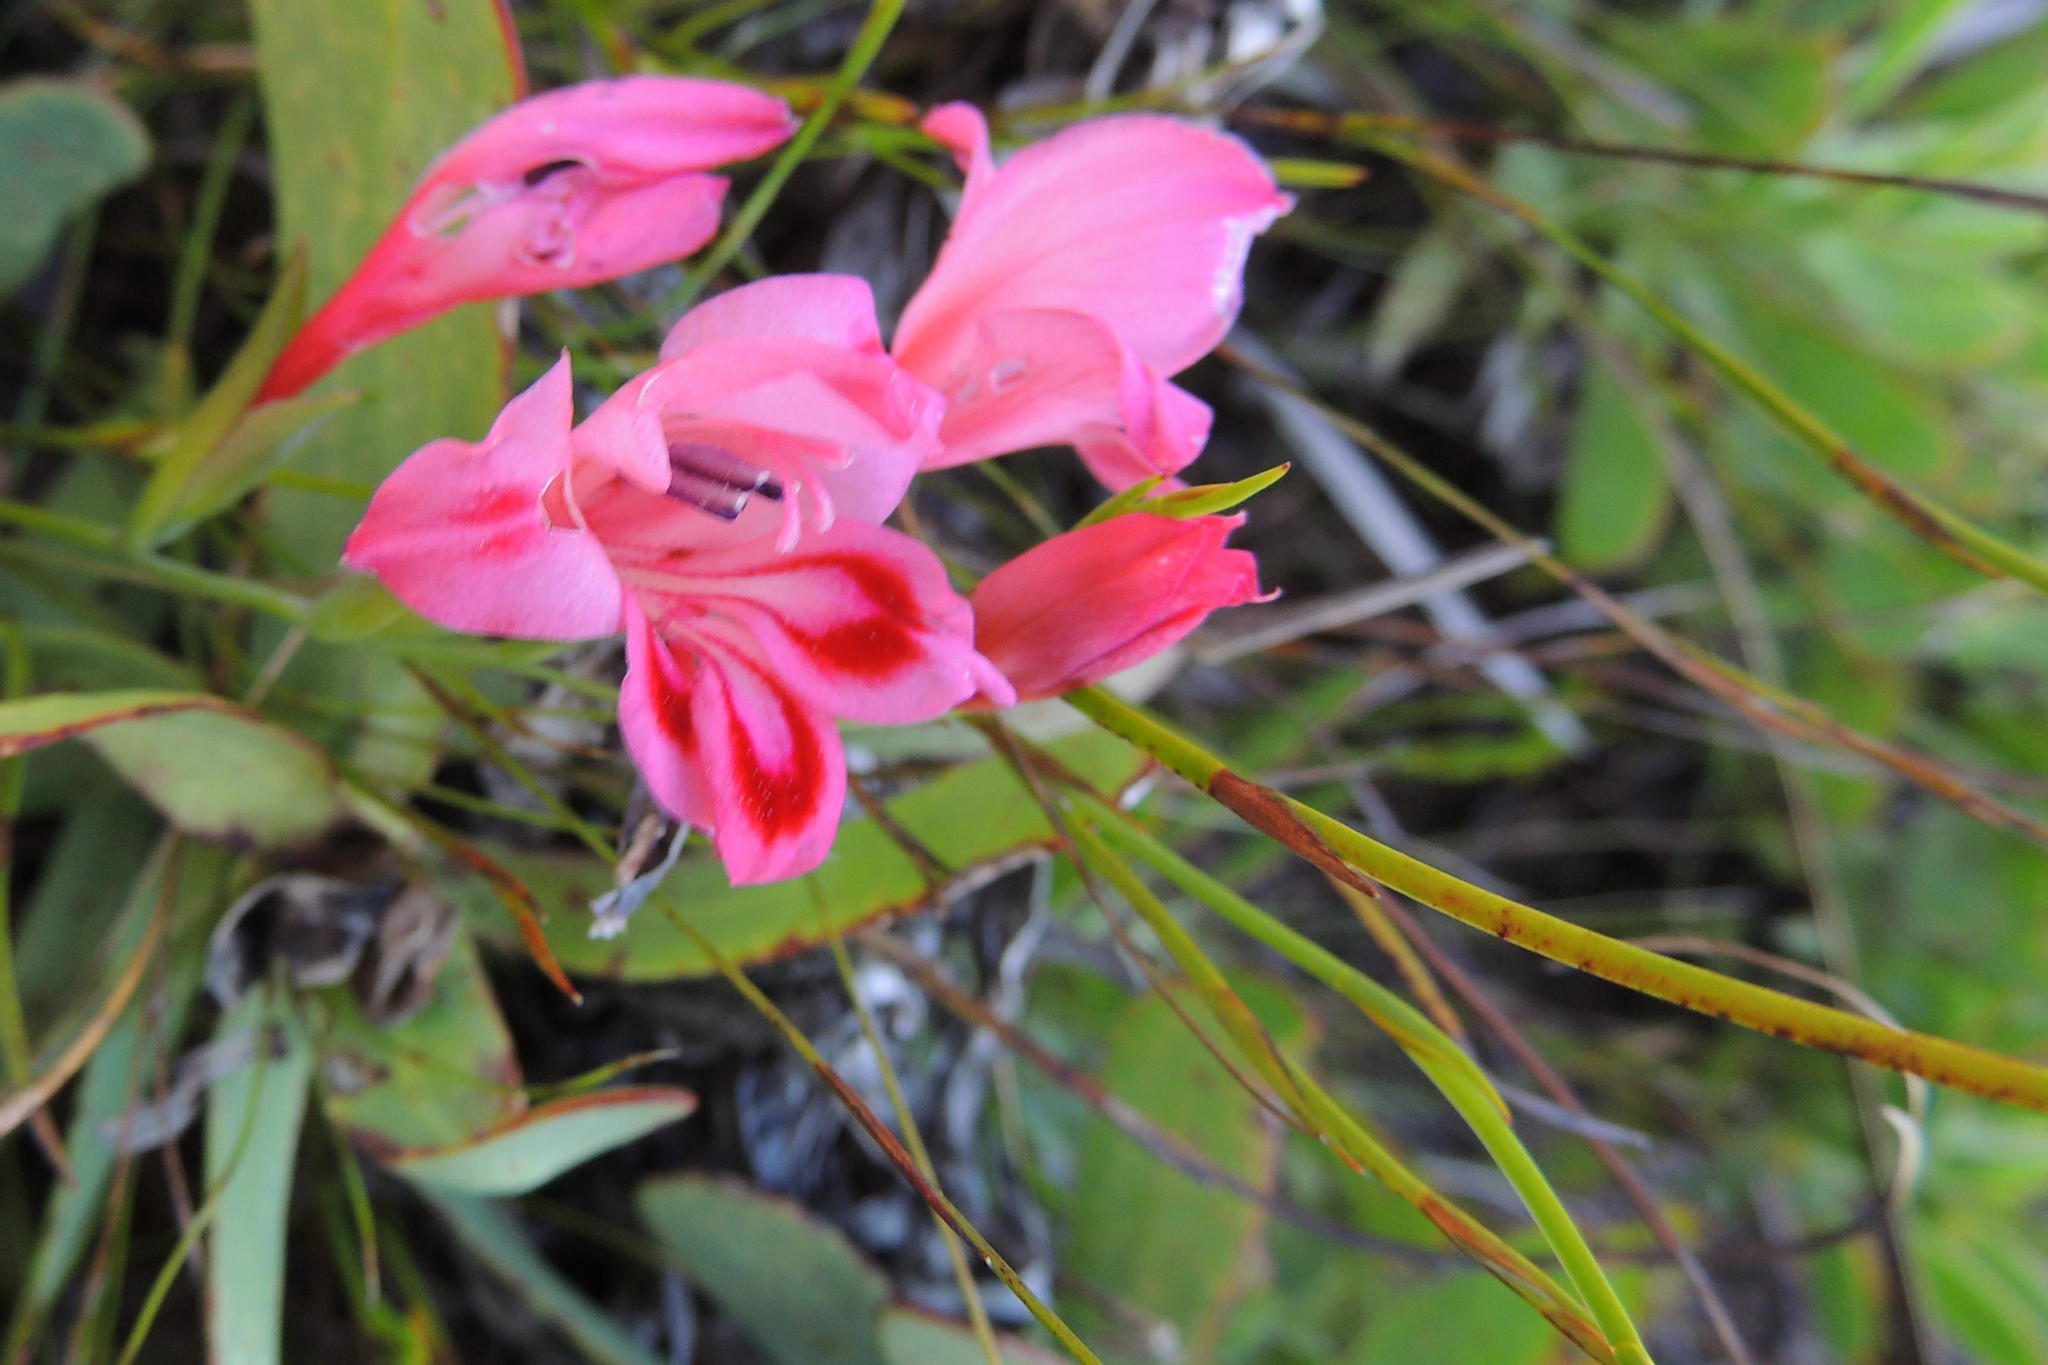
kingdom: Plantae
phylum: Tracheophyta
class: Liliopsida
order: Asparagales
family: Iridaceae
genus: Gladiolus
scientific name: Gladiolus oreocharis
